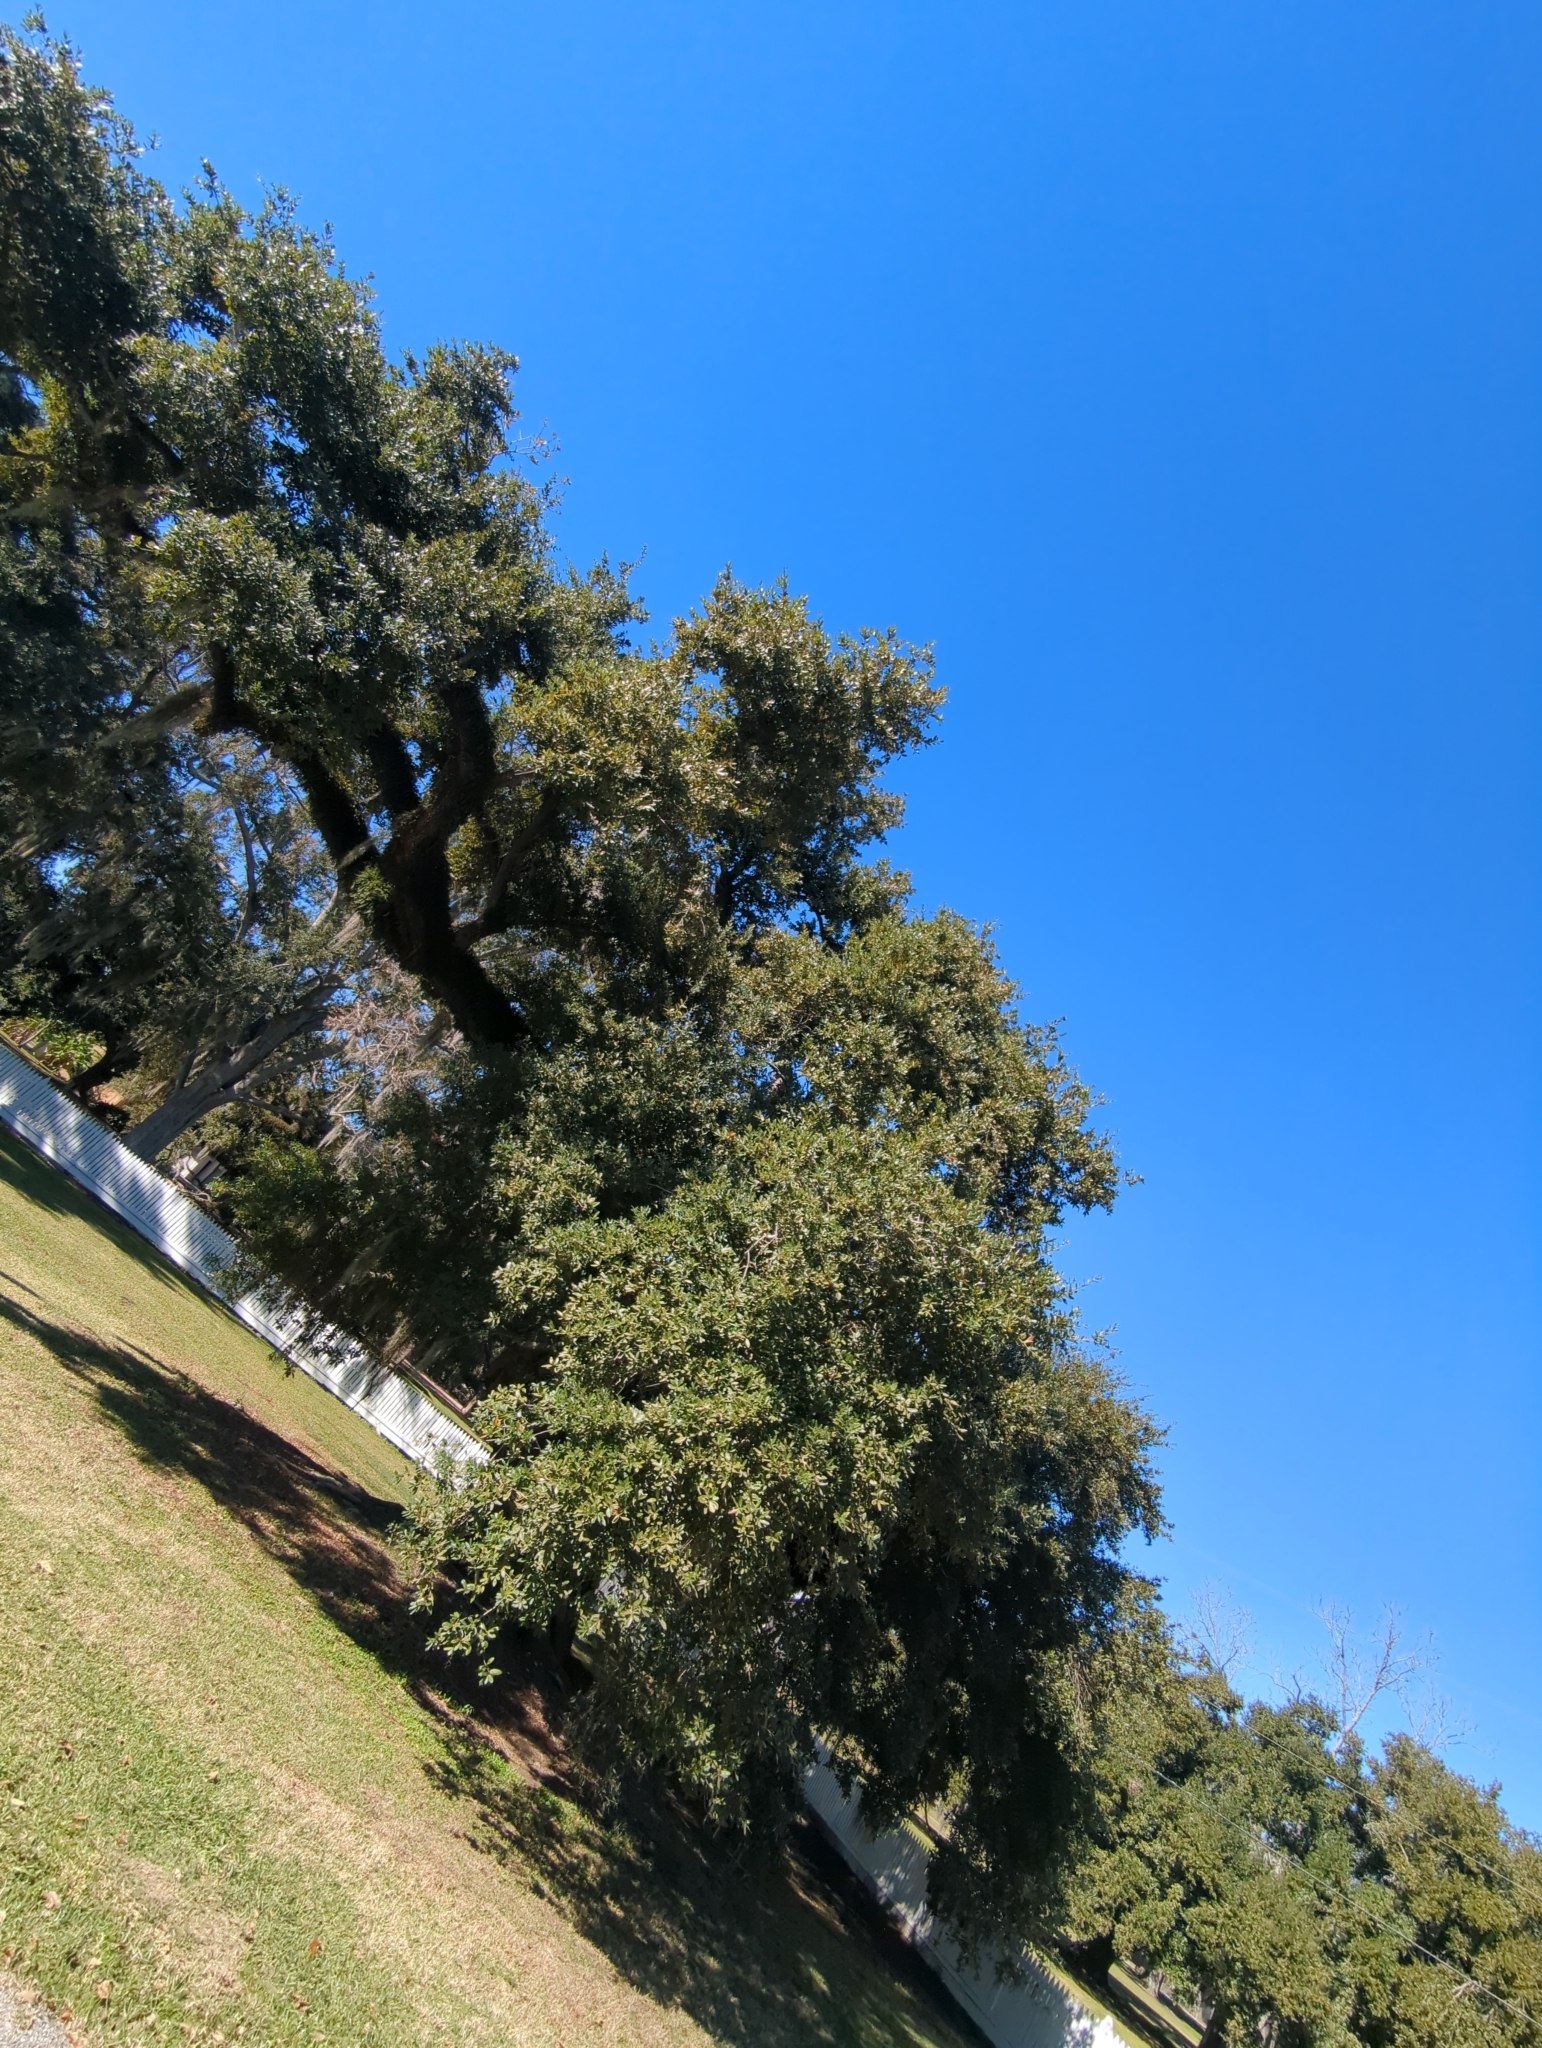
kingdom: Plantae
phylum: Tracheophyta
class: Magnoliopsida
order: Fagales
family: Fagaceae
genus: Quercus
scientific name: Quercus virginiana
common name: Southern live oak
